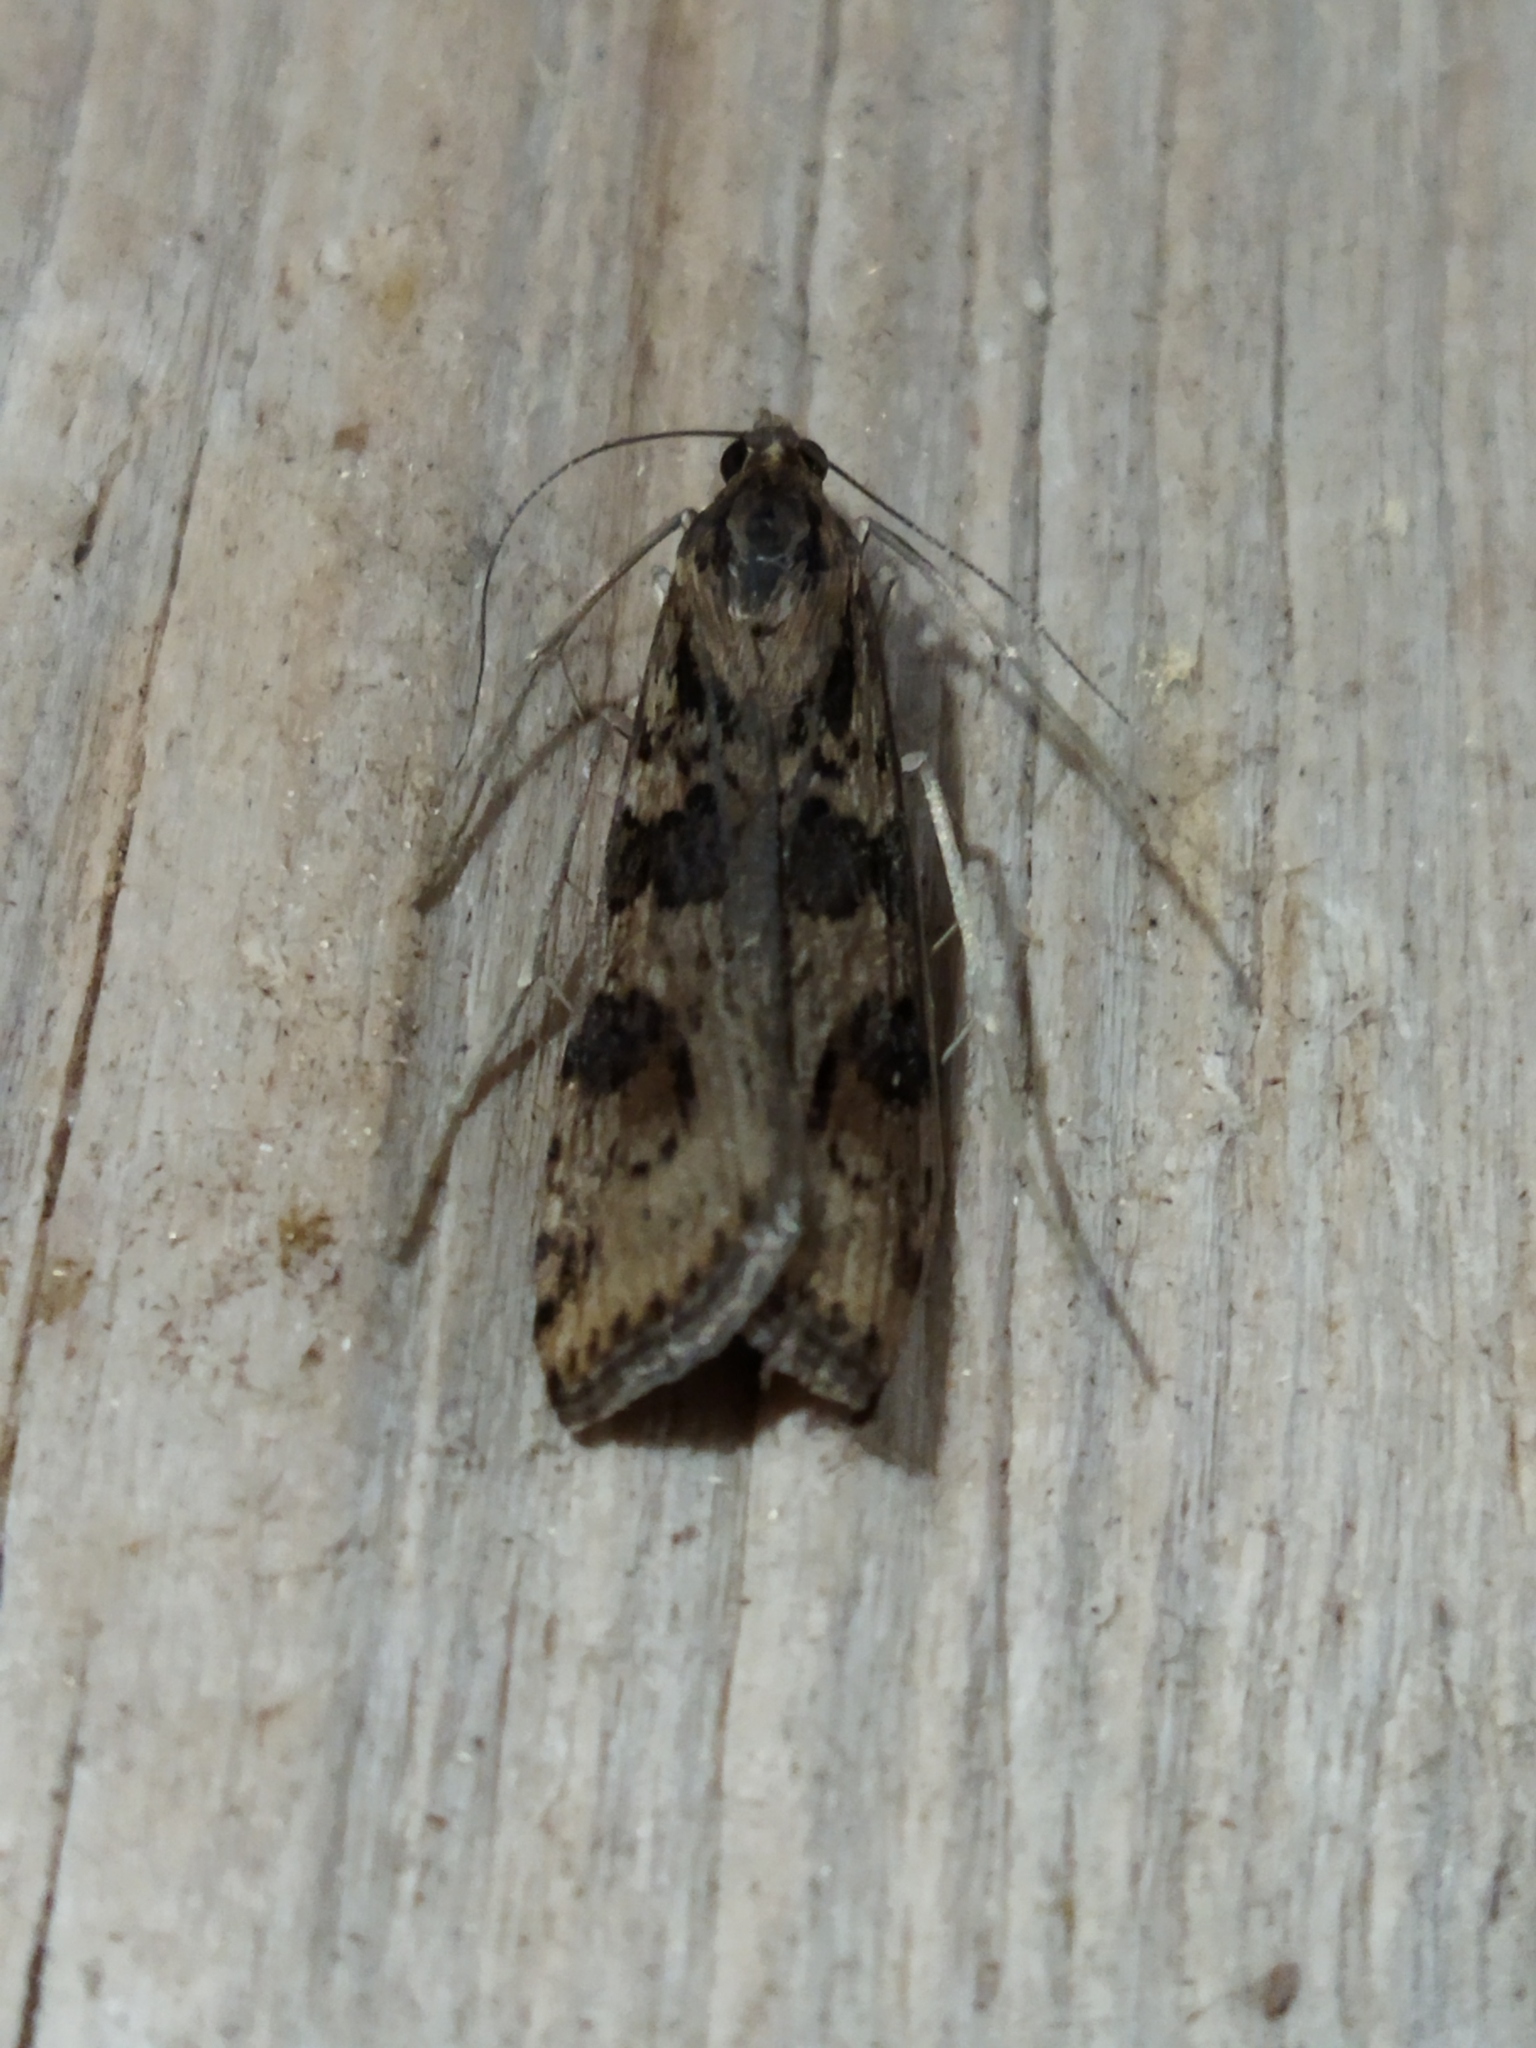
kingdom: Animalia
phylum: Arthropoda
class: Insecta
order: Lepidoptera
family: Crambidae
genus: Nomophila
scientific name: Nomophila noctuella
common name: Rush veneer
